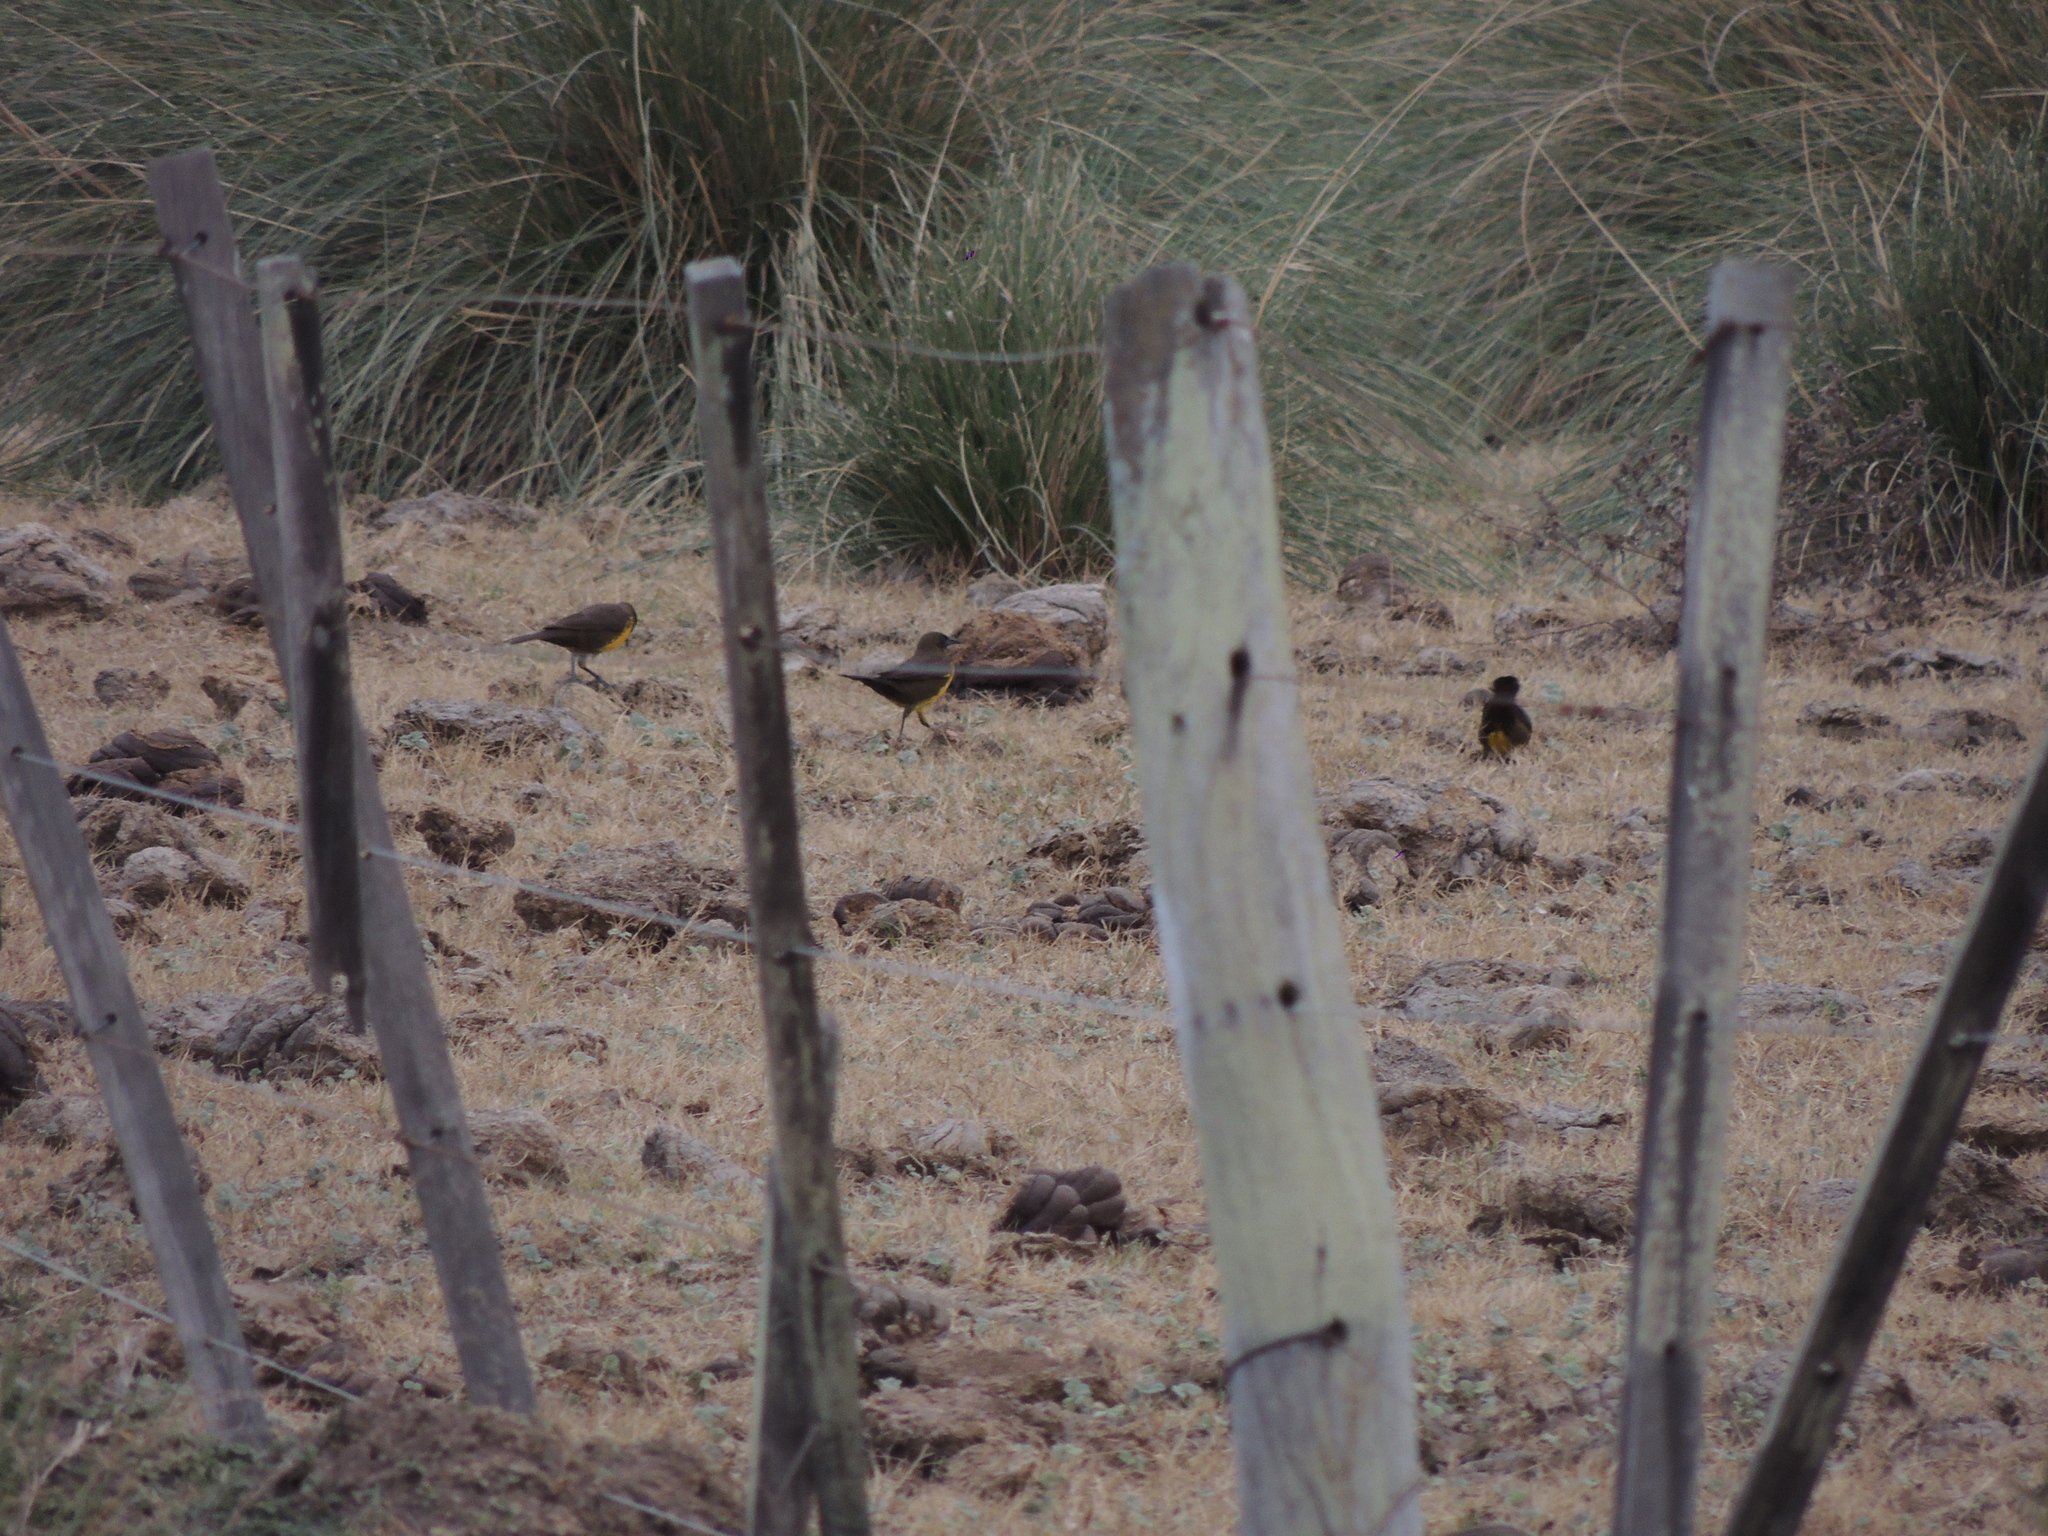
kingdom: Animalia
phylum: Chordata
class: Aves
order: Passeriformes
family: Icteridae
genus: Pseudoleistes
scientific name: Pseudoleistes virescens
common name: Brown-and-yellow marshbird
